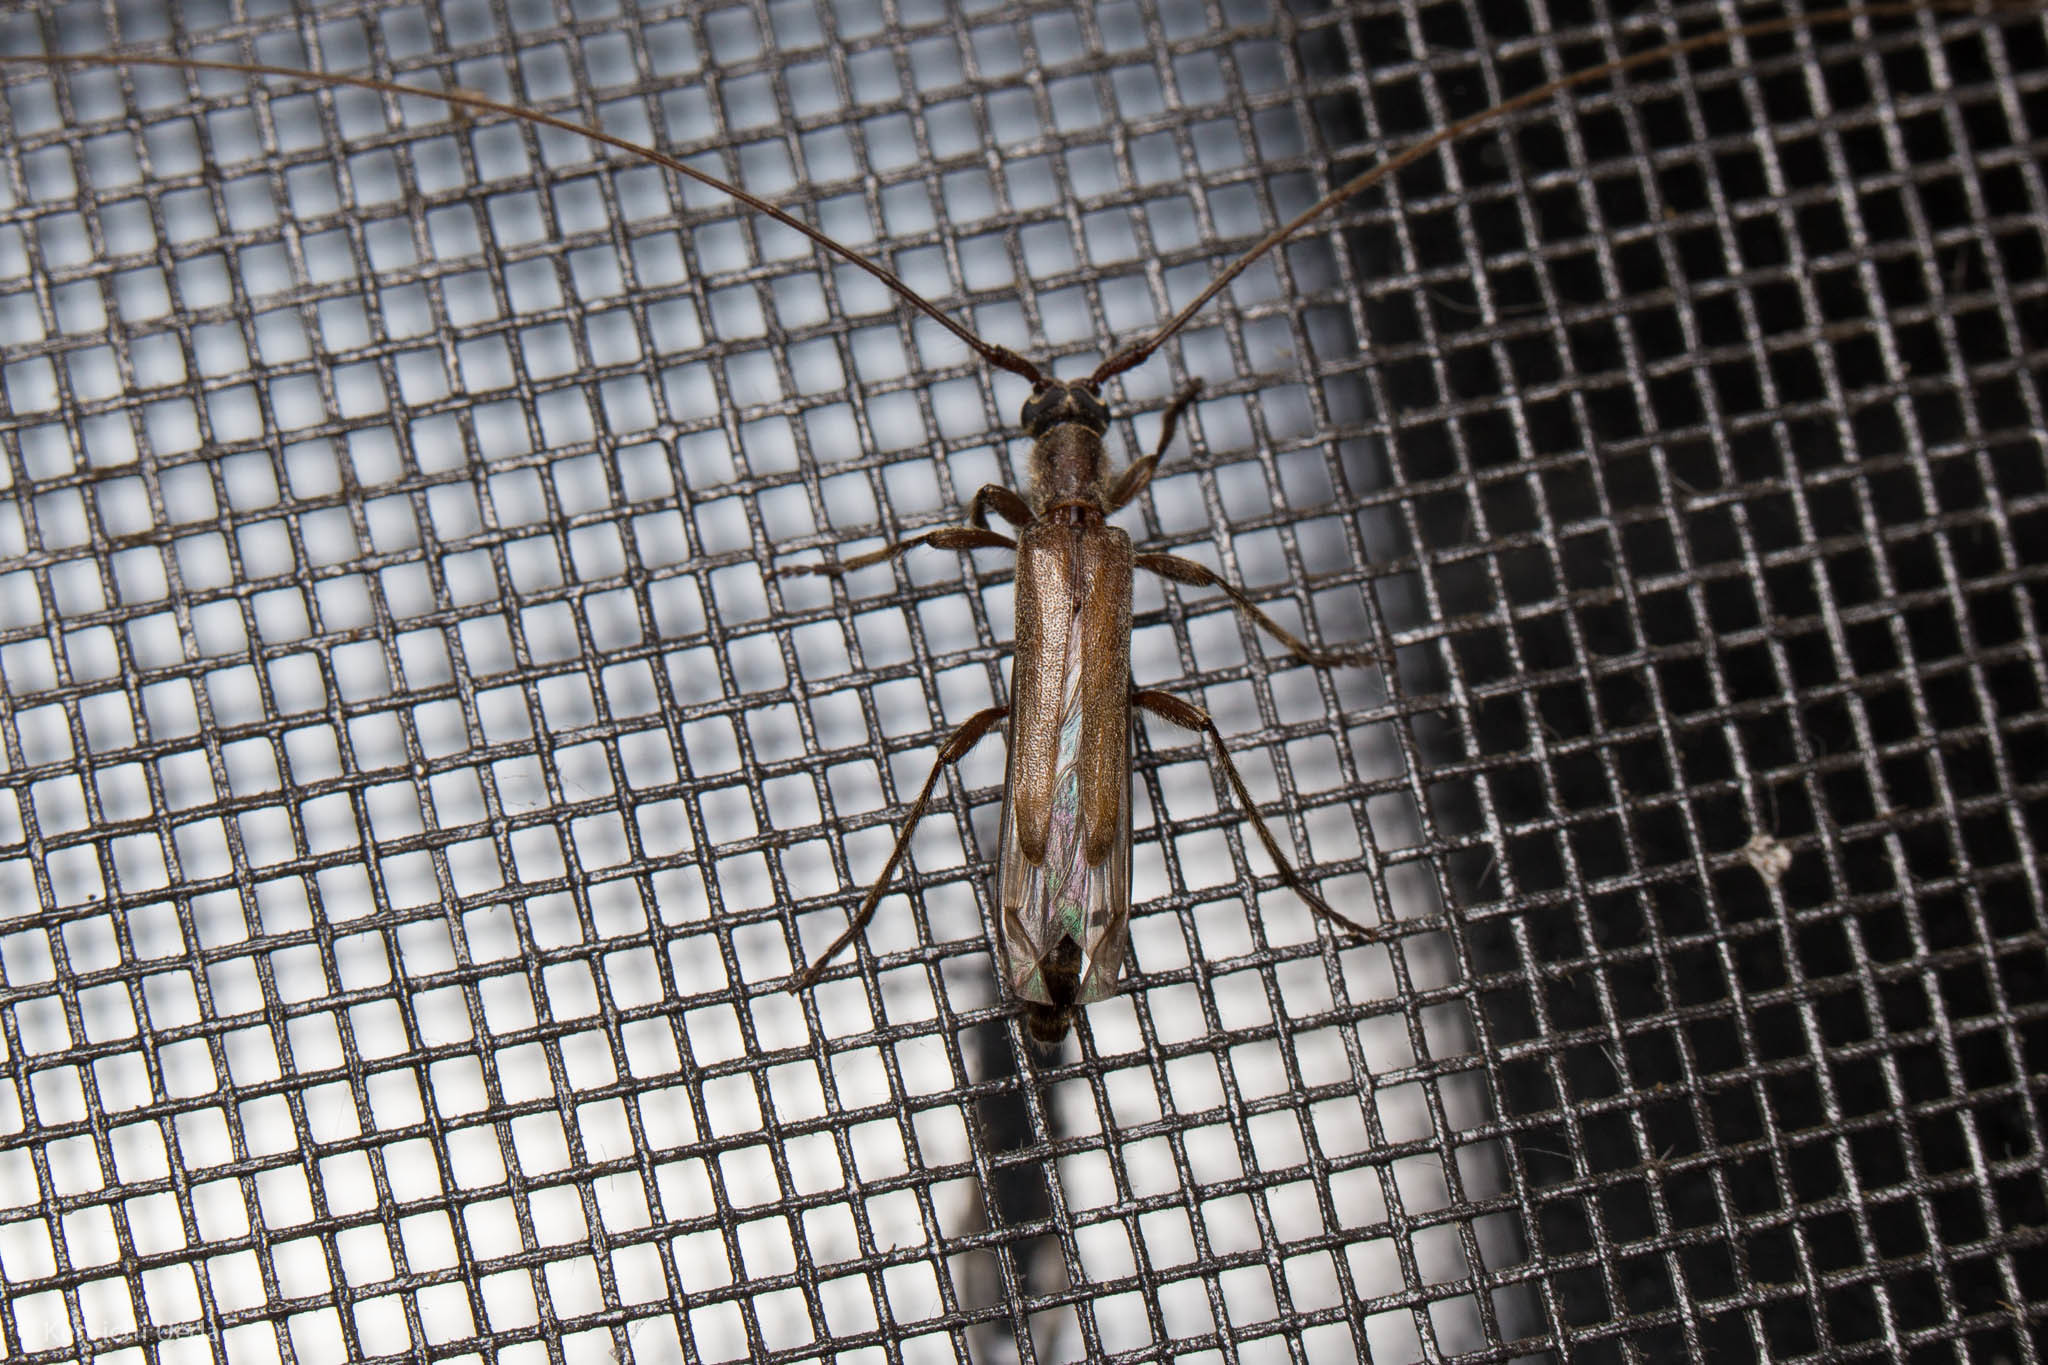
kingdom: Animalia
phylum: Arthropoda
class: Insecta
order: Coleoptera
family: Cerambycidae
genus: Styloxus
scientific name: Styloxus fulleri
